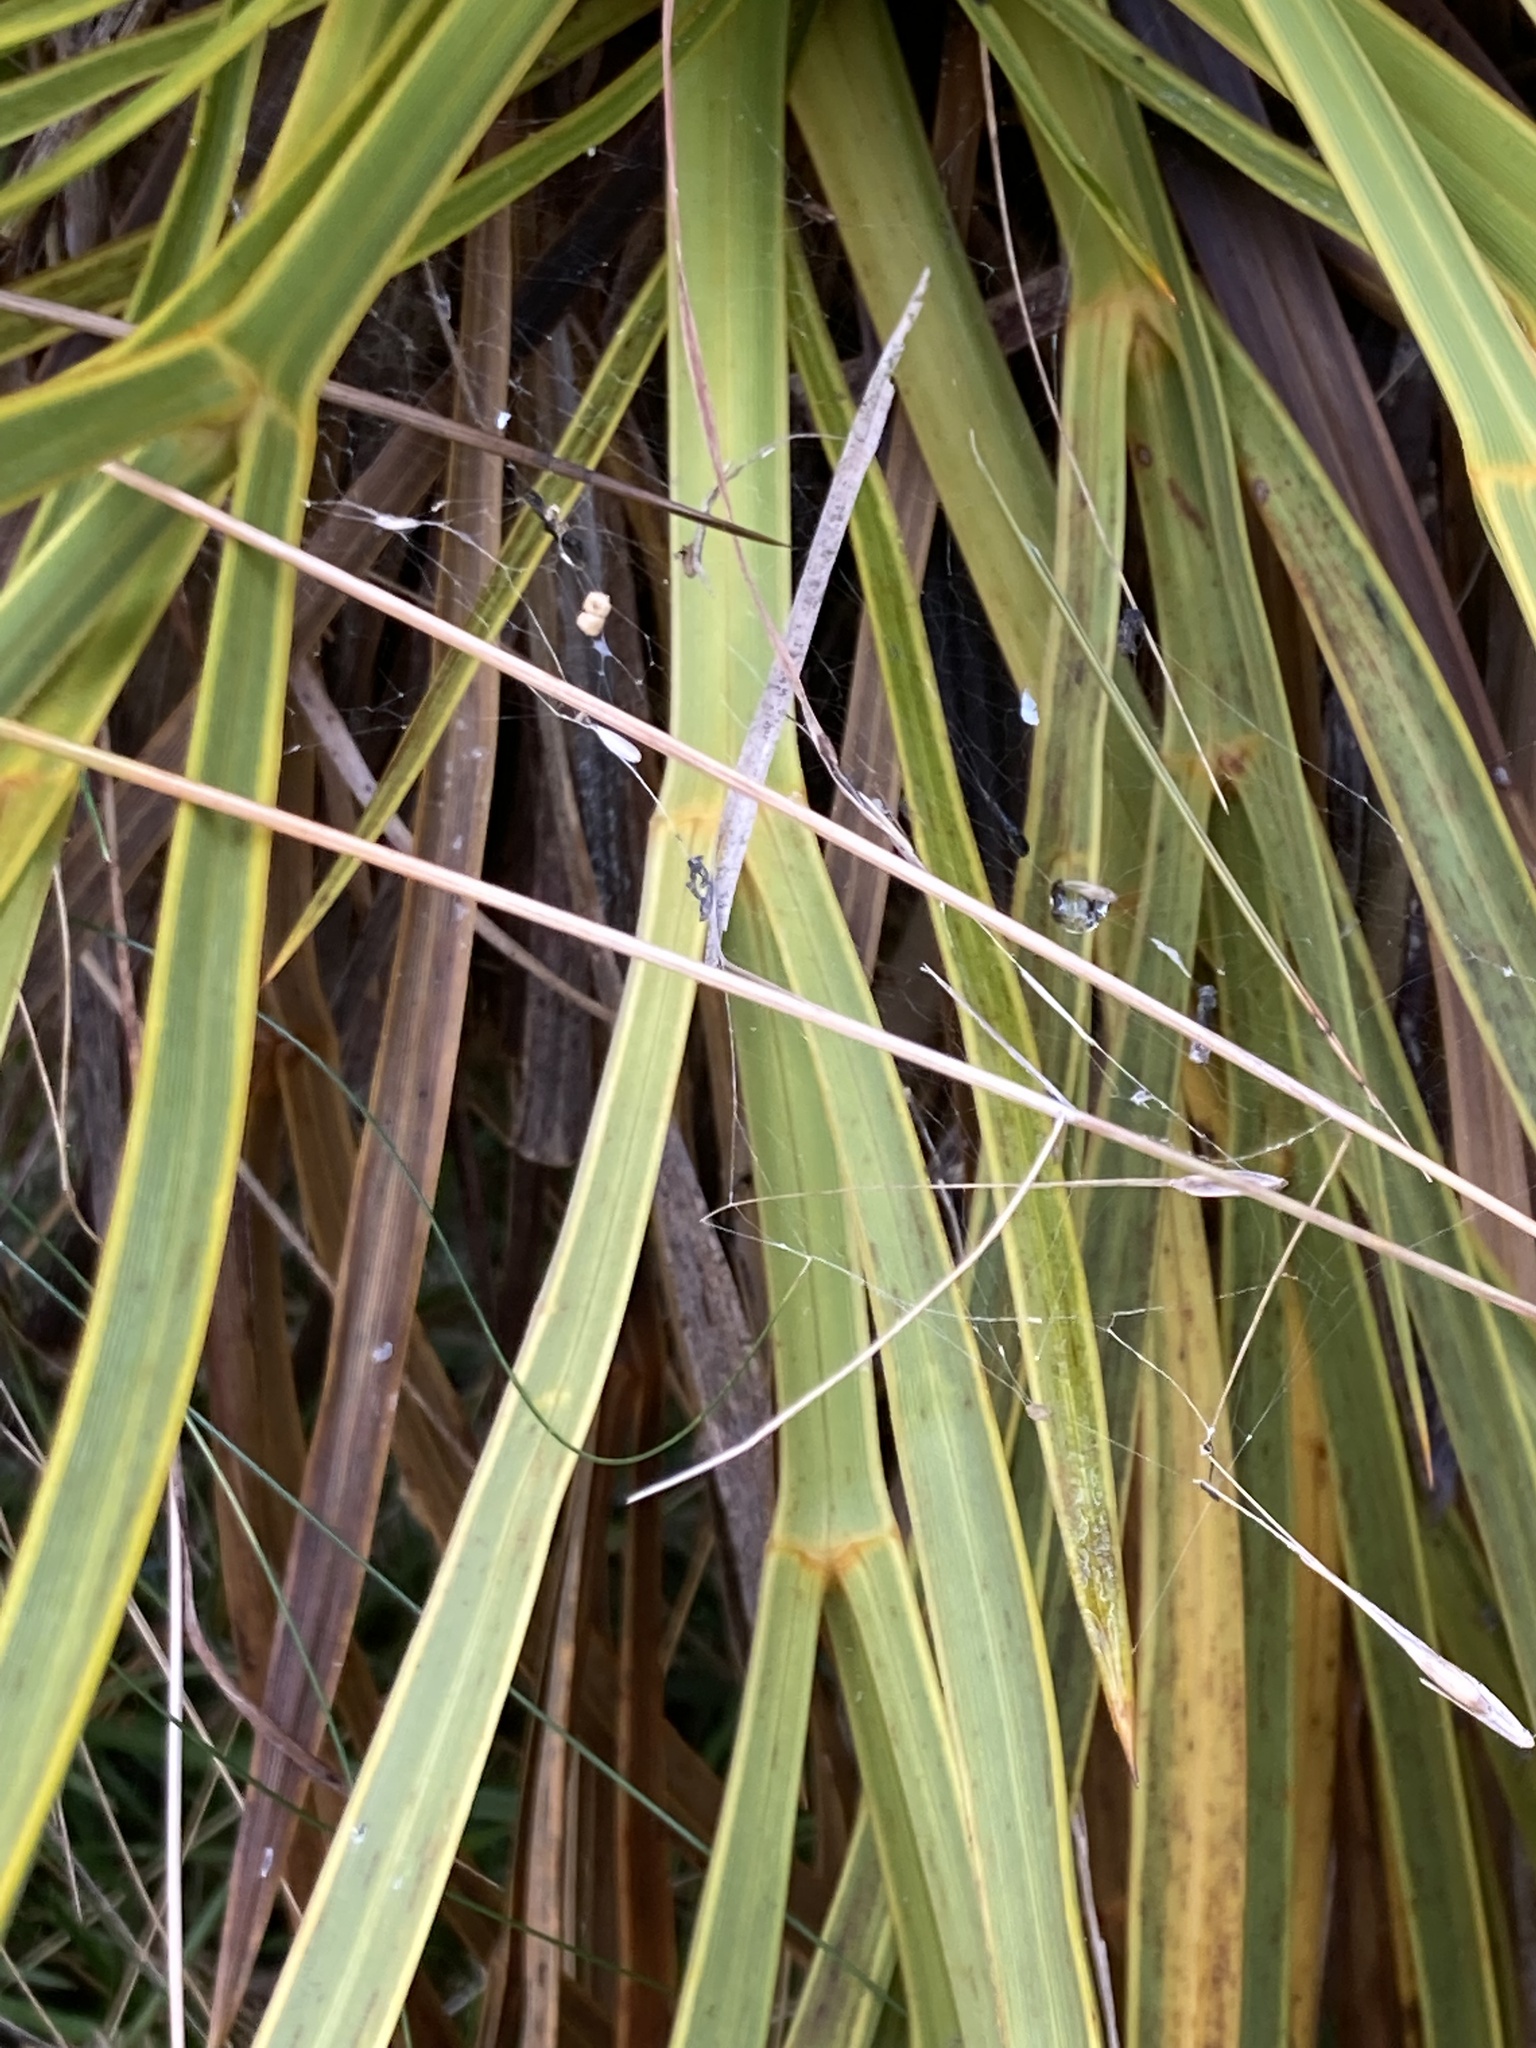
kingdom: Plantae
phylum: Tracheophyta
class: Magnoliopsida
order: Apiales
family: Apiaceae
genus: Aciphylla
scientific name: Aciphylla aurea
